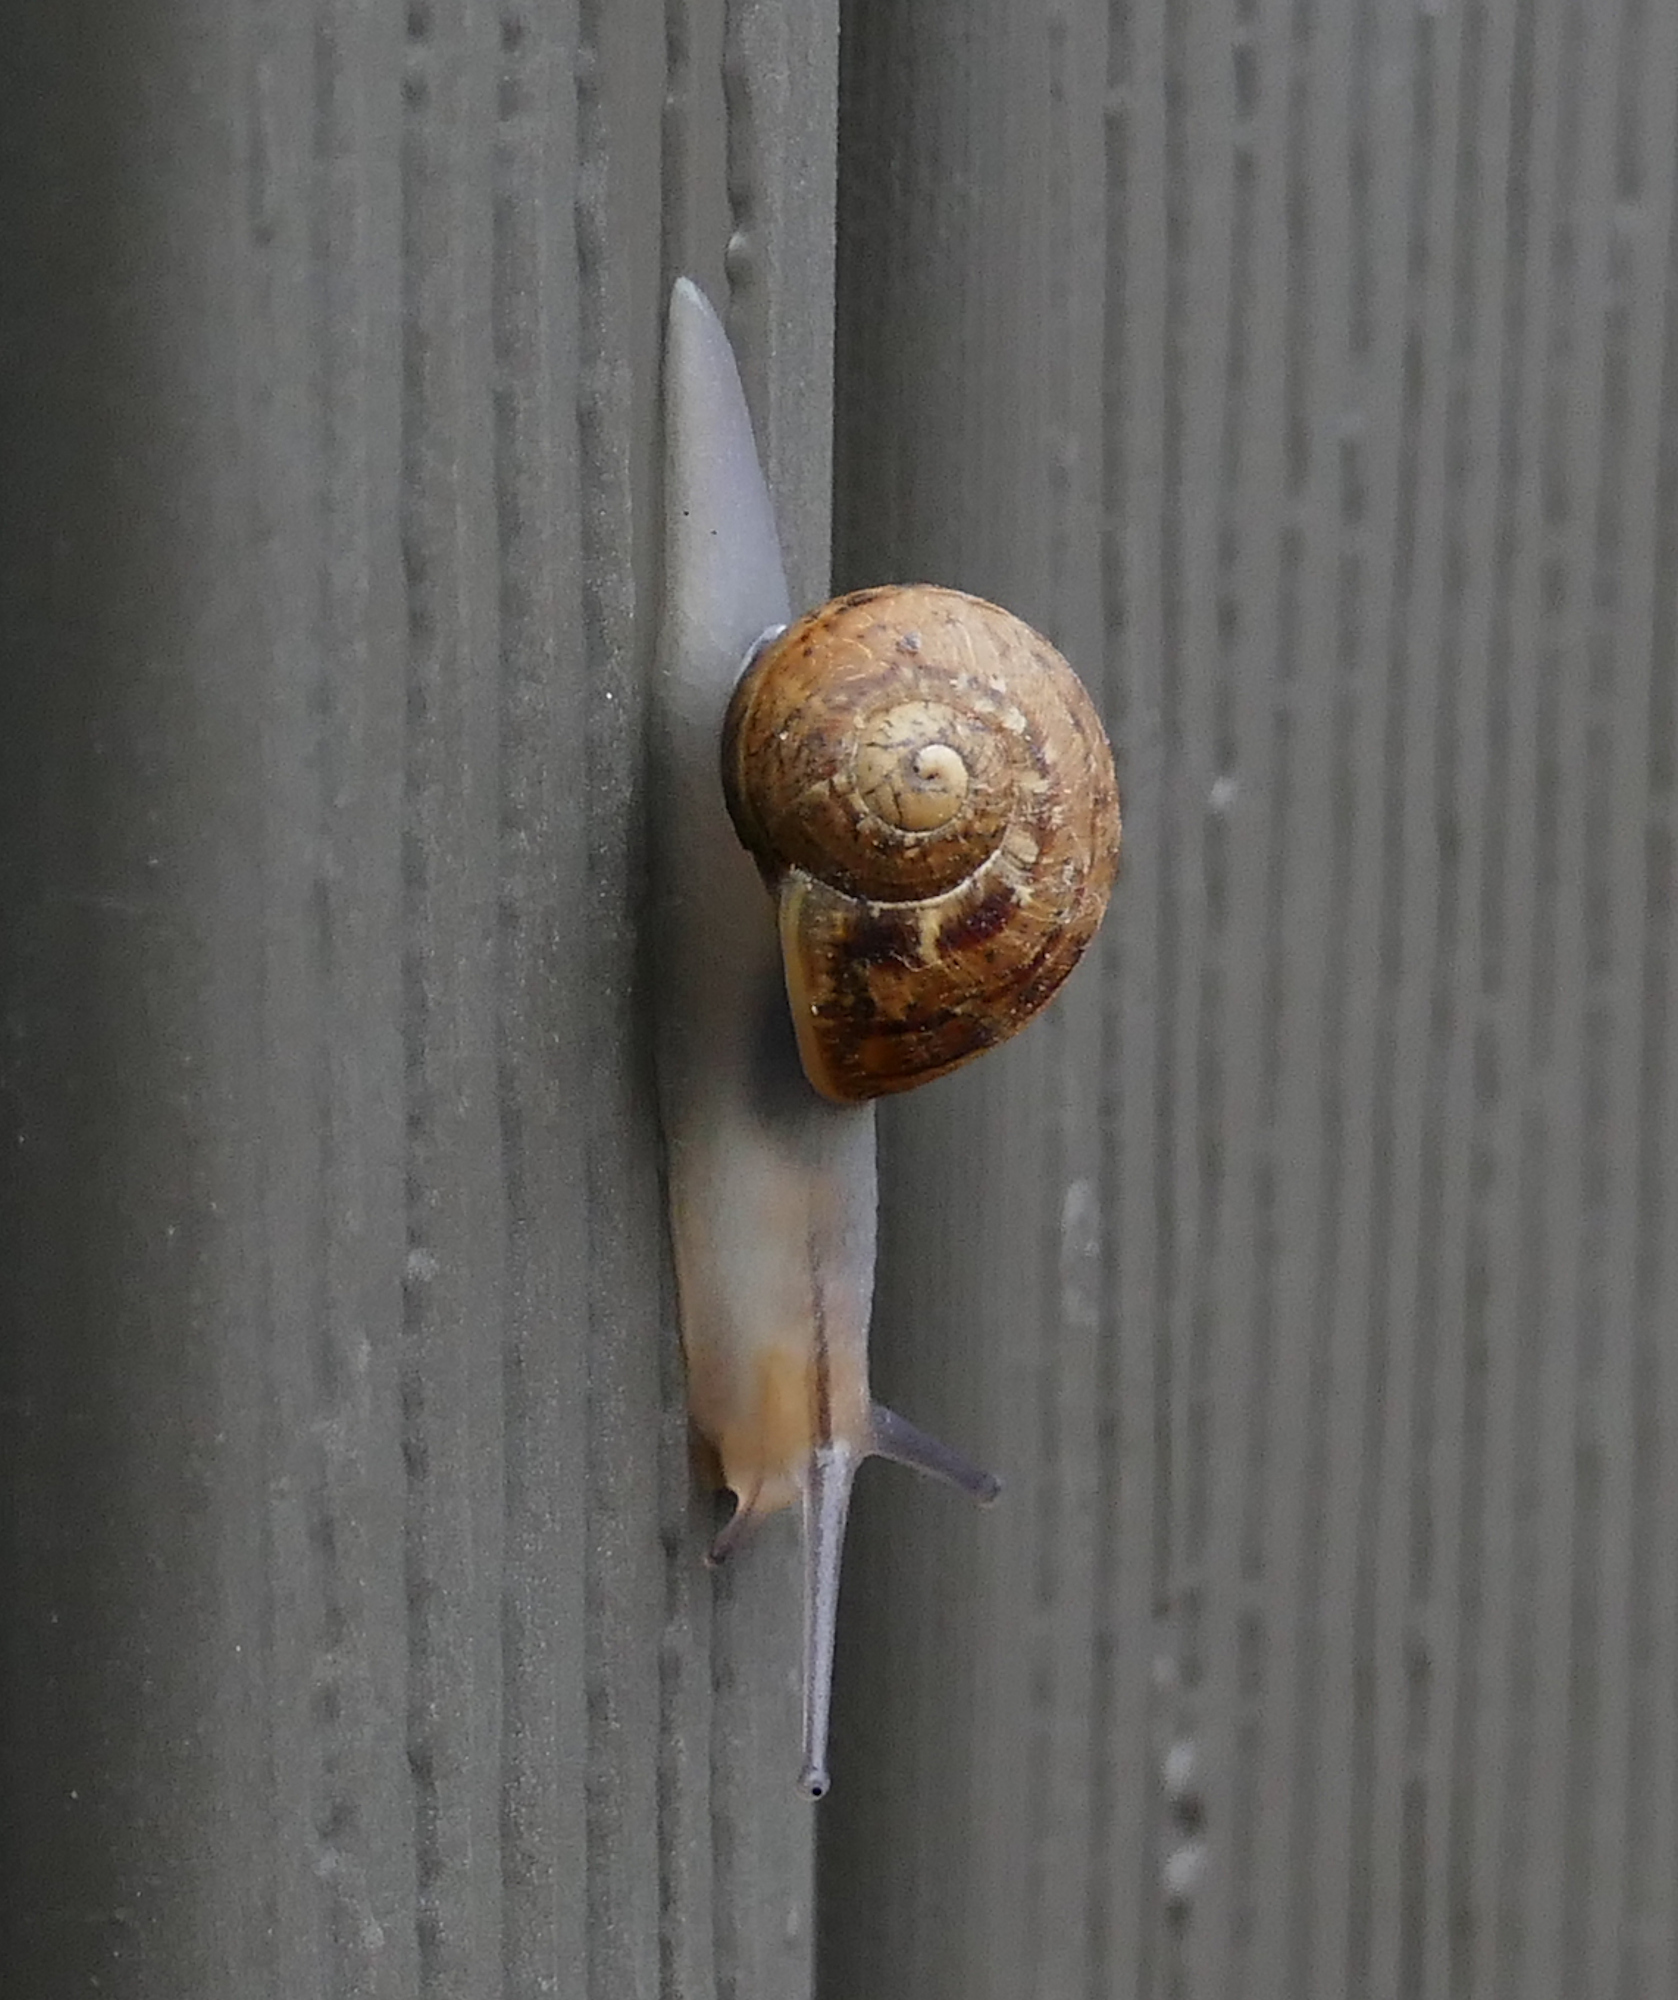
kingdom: Animalia
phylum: Mollusca
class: Gastropoda
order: Stylommatophora
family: Helicidae
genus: Cornu
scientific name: Cornu aspersum
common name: Brown garden snail
